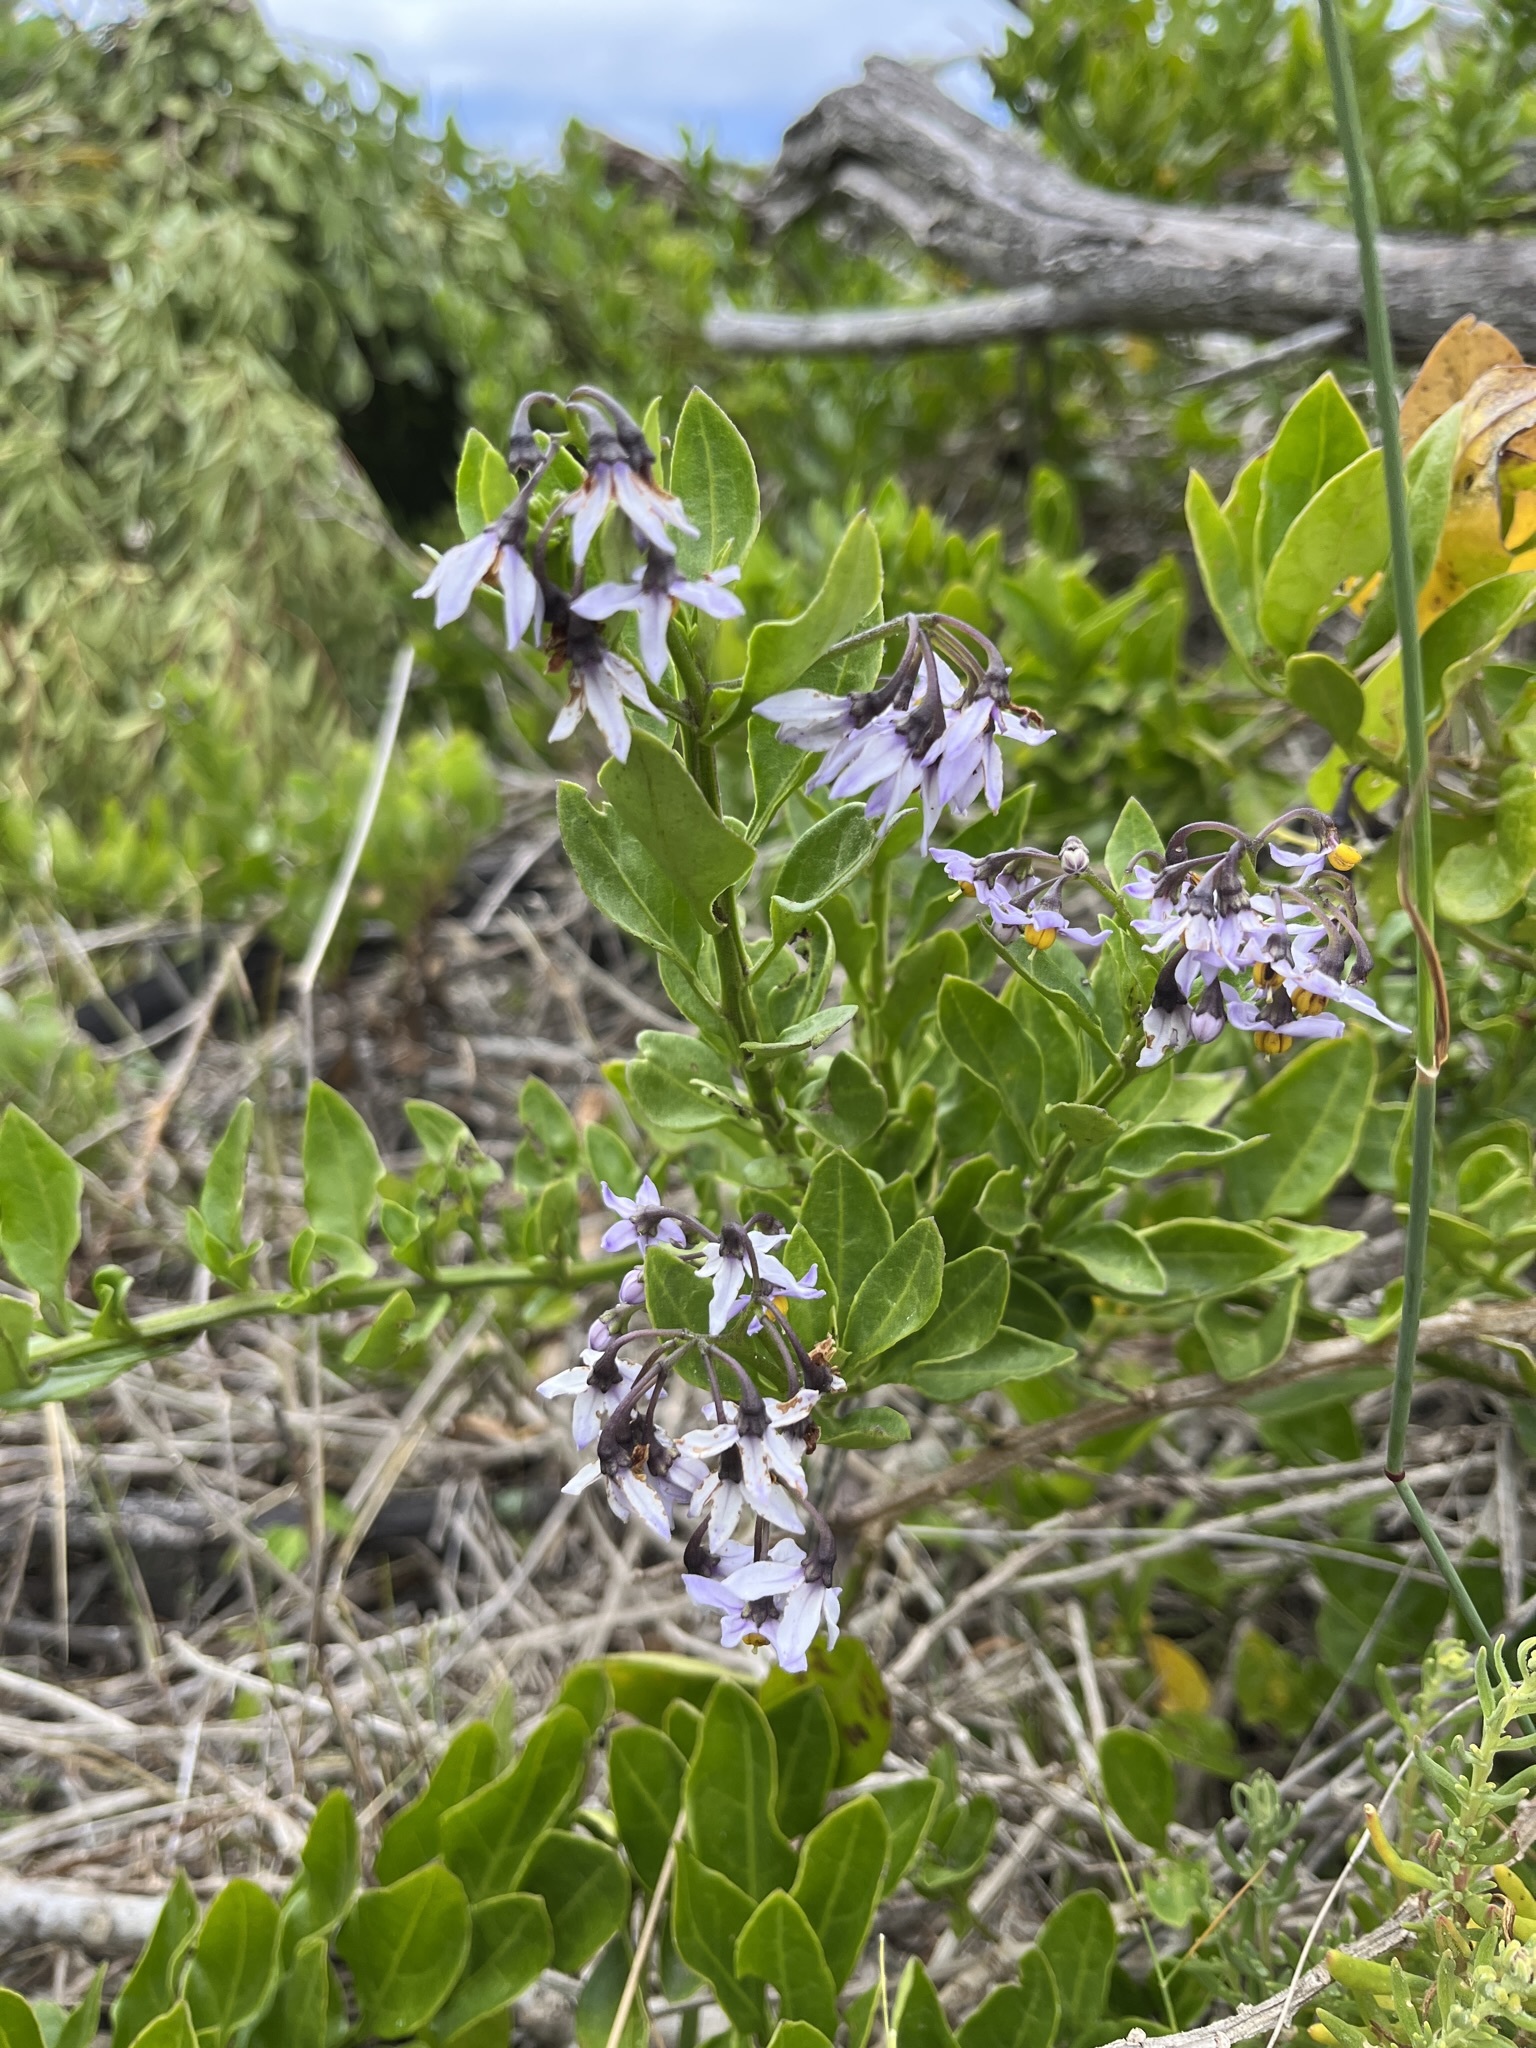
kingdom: Plantae
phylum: Tracheophyta
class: Magnoliopsida
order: Solanales
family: Solanaceae
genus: Solanum
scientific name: Solanum africanum
